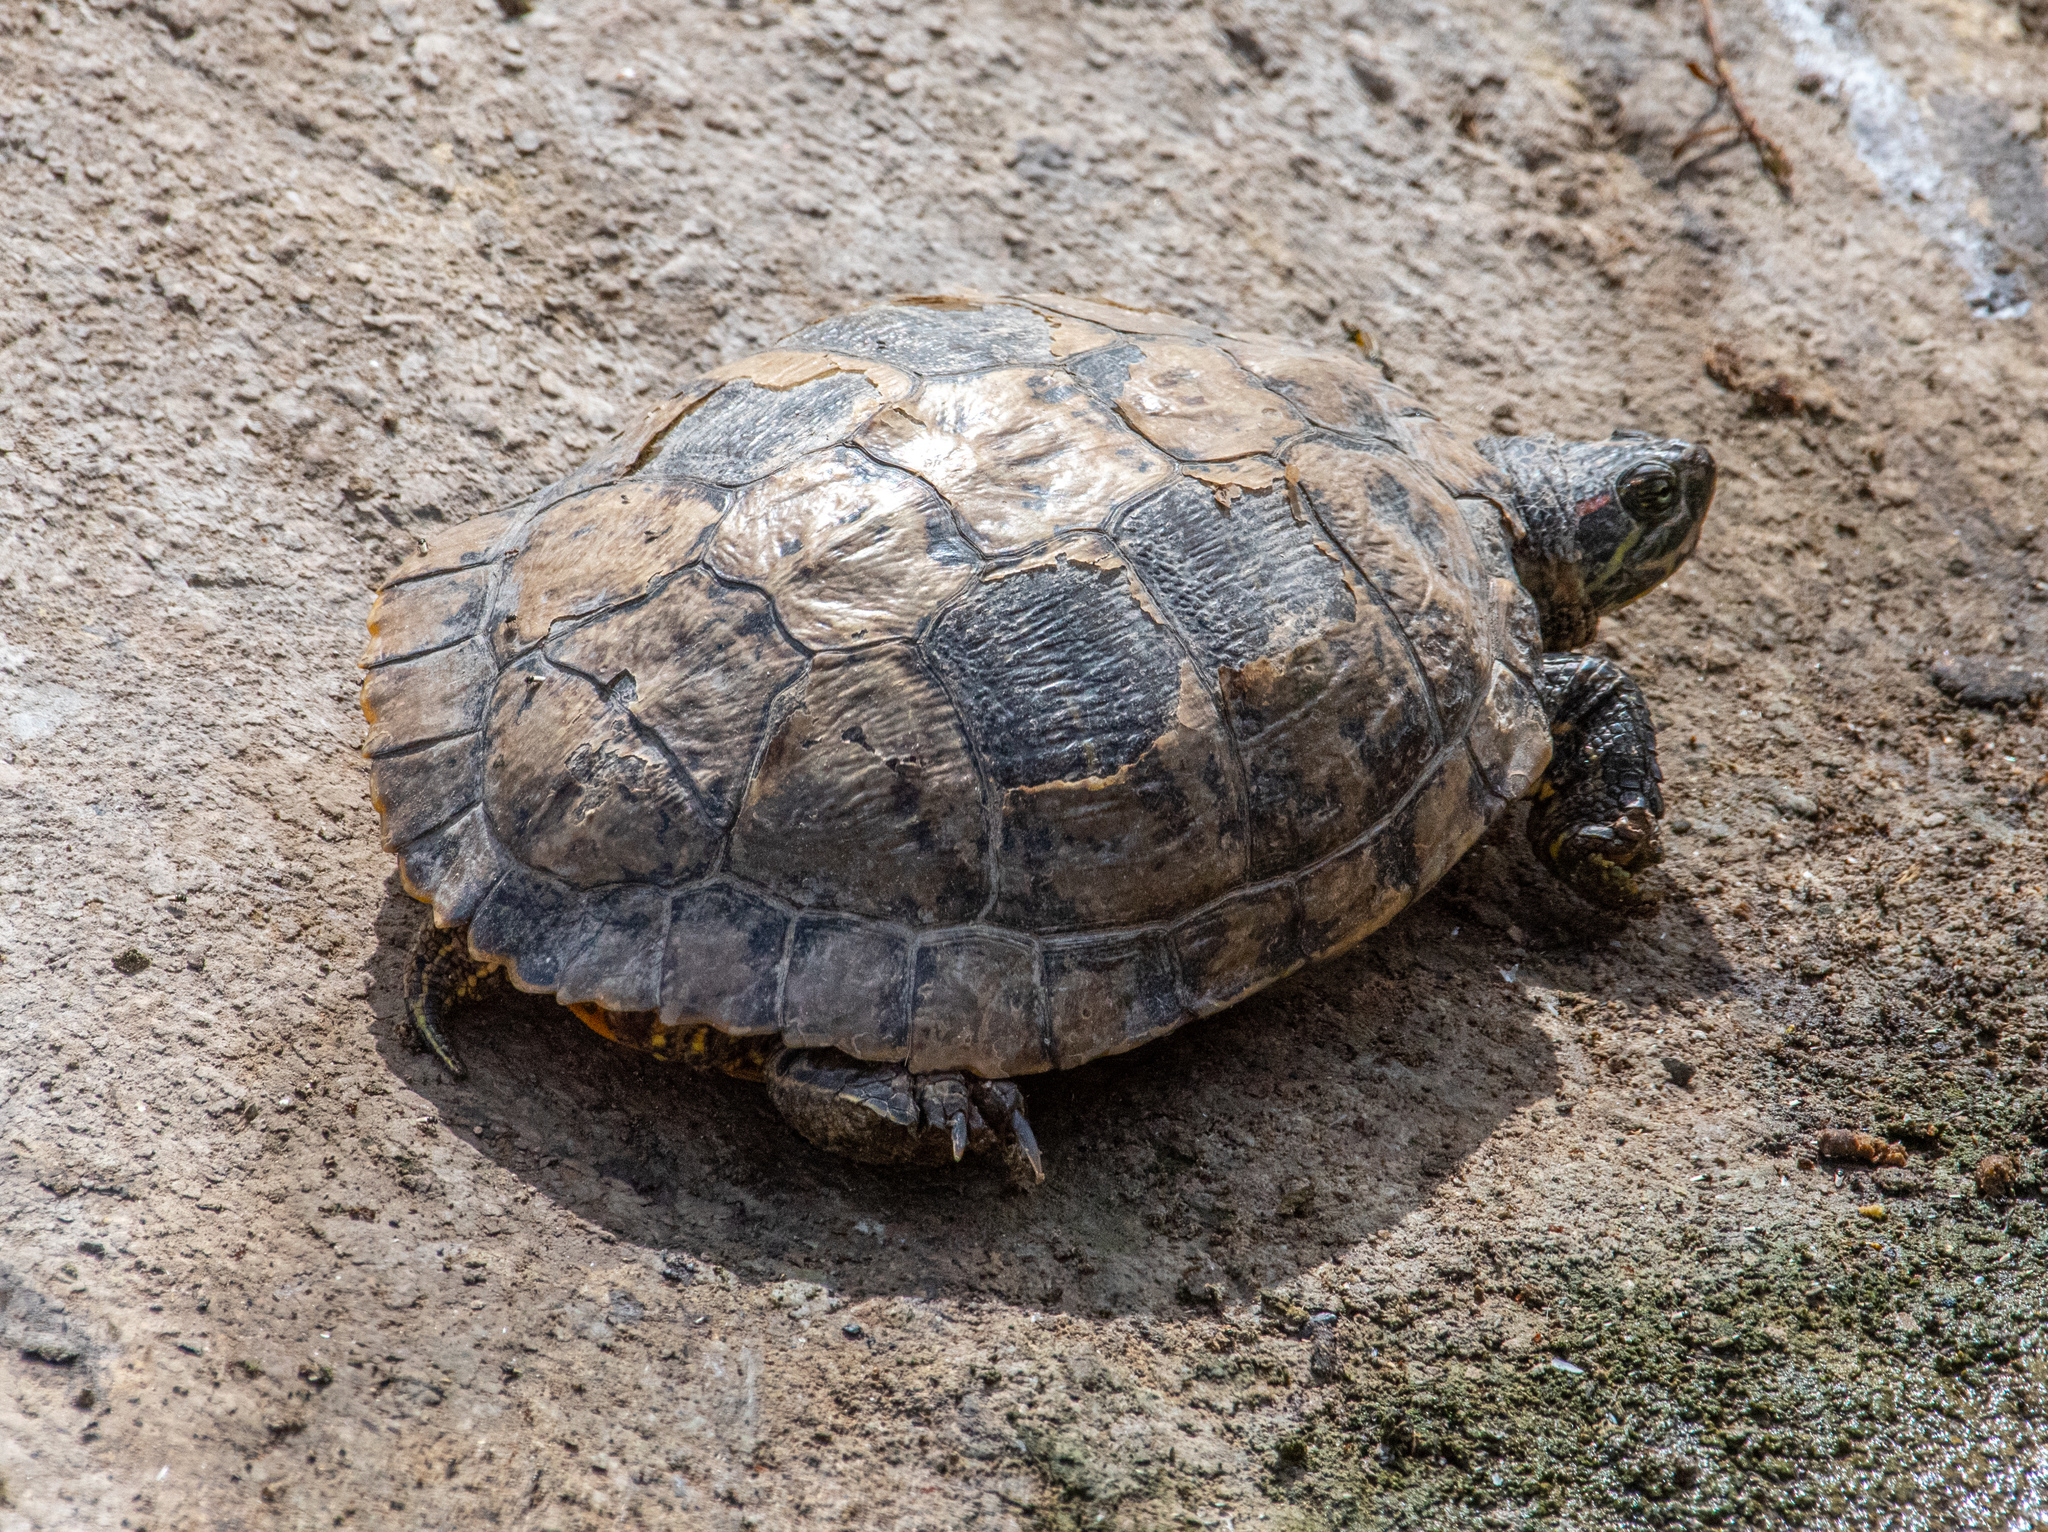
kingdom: Animalia
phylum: Chordata
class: Testudines
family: Emydidae
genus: Trachemys
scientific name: Trachemys scripta
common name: Slider
